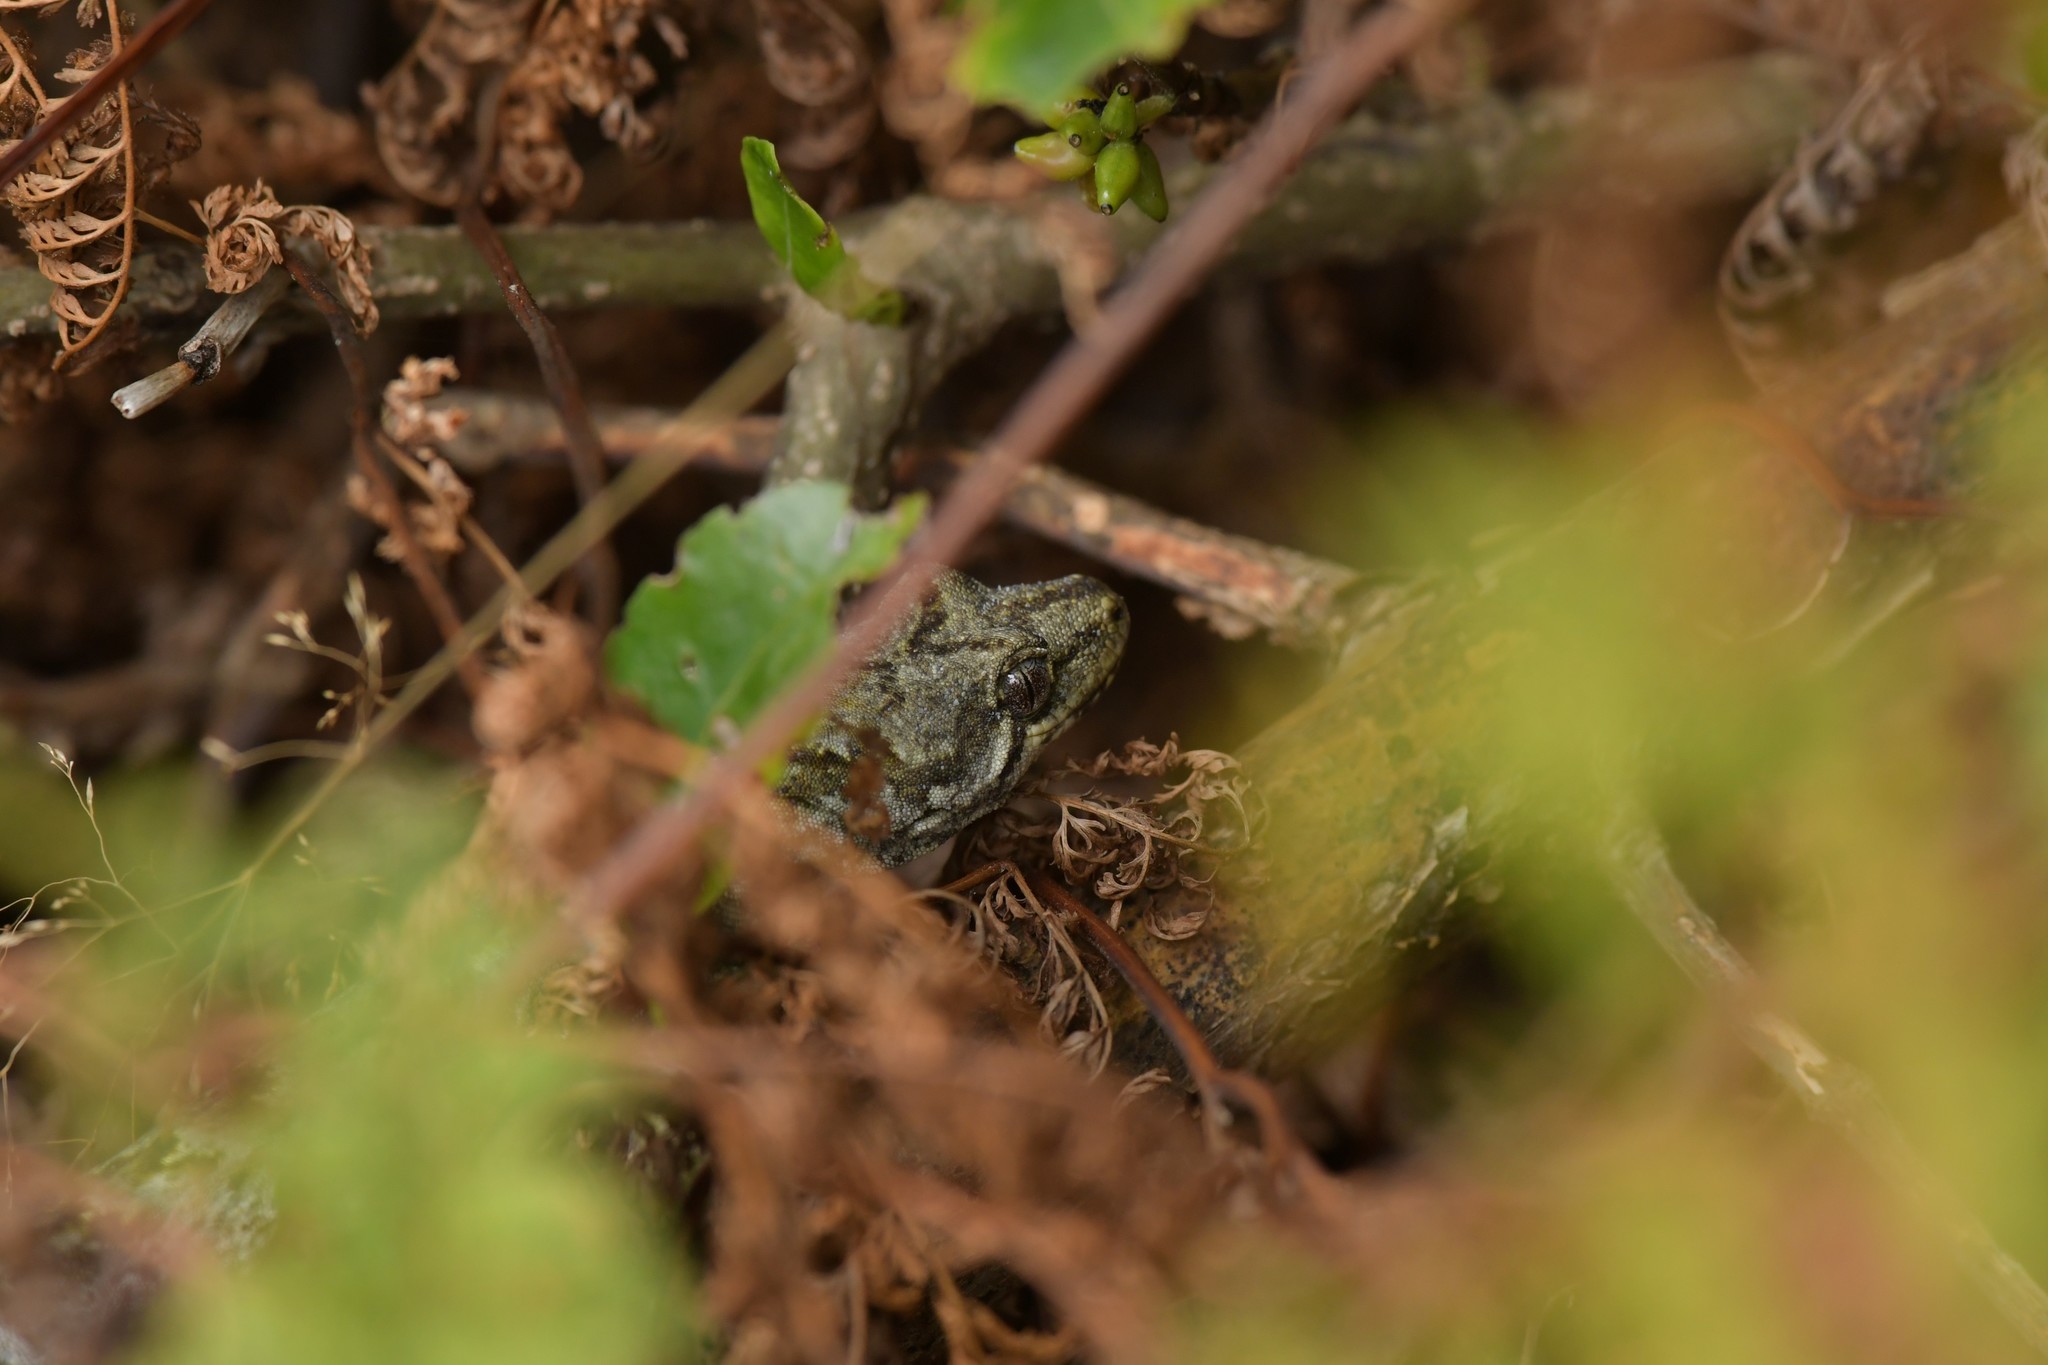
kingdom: Animalia
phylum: Chordata
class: Squamata
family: Diplodactylidae
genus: Mokopirirakau
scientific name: Mokopirirakau
